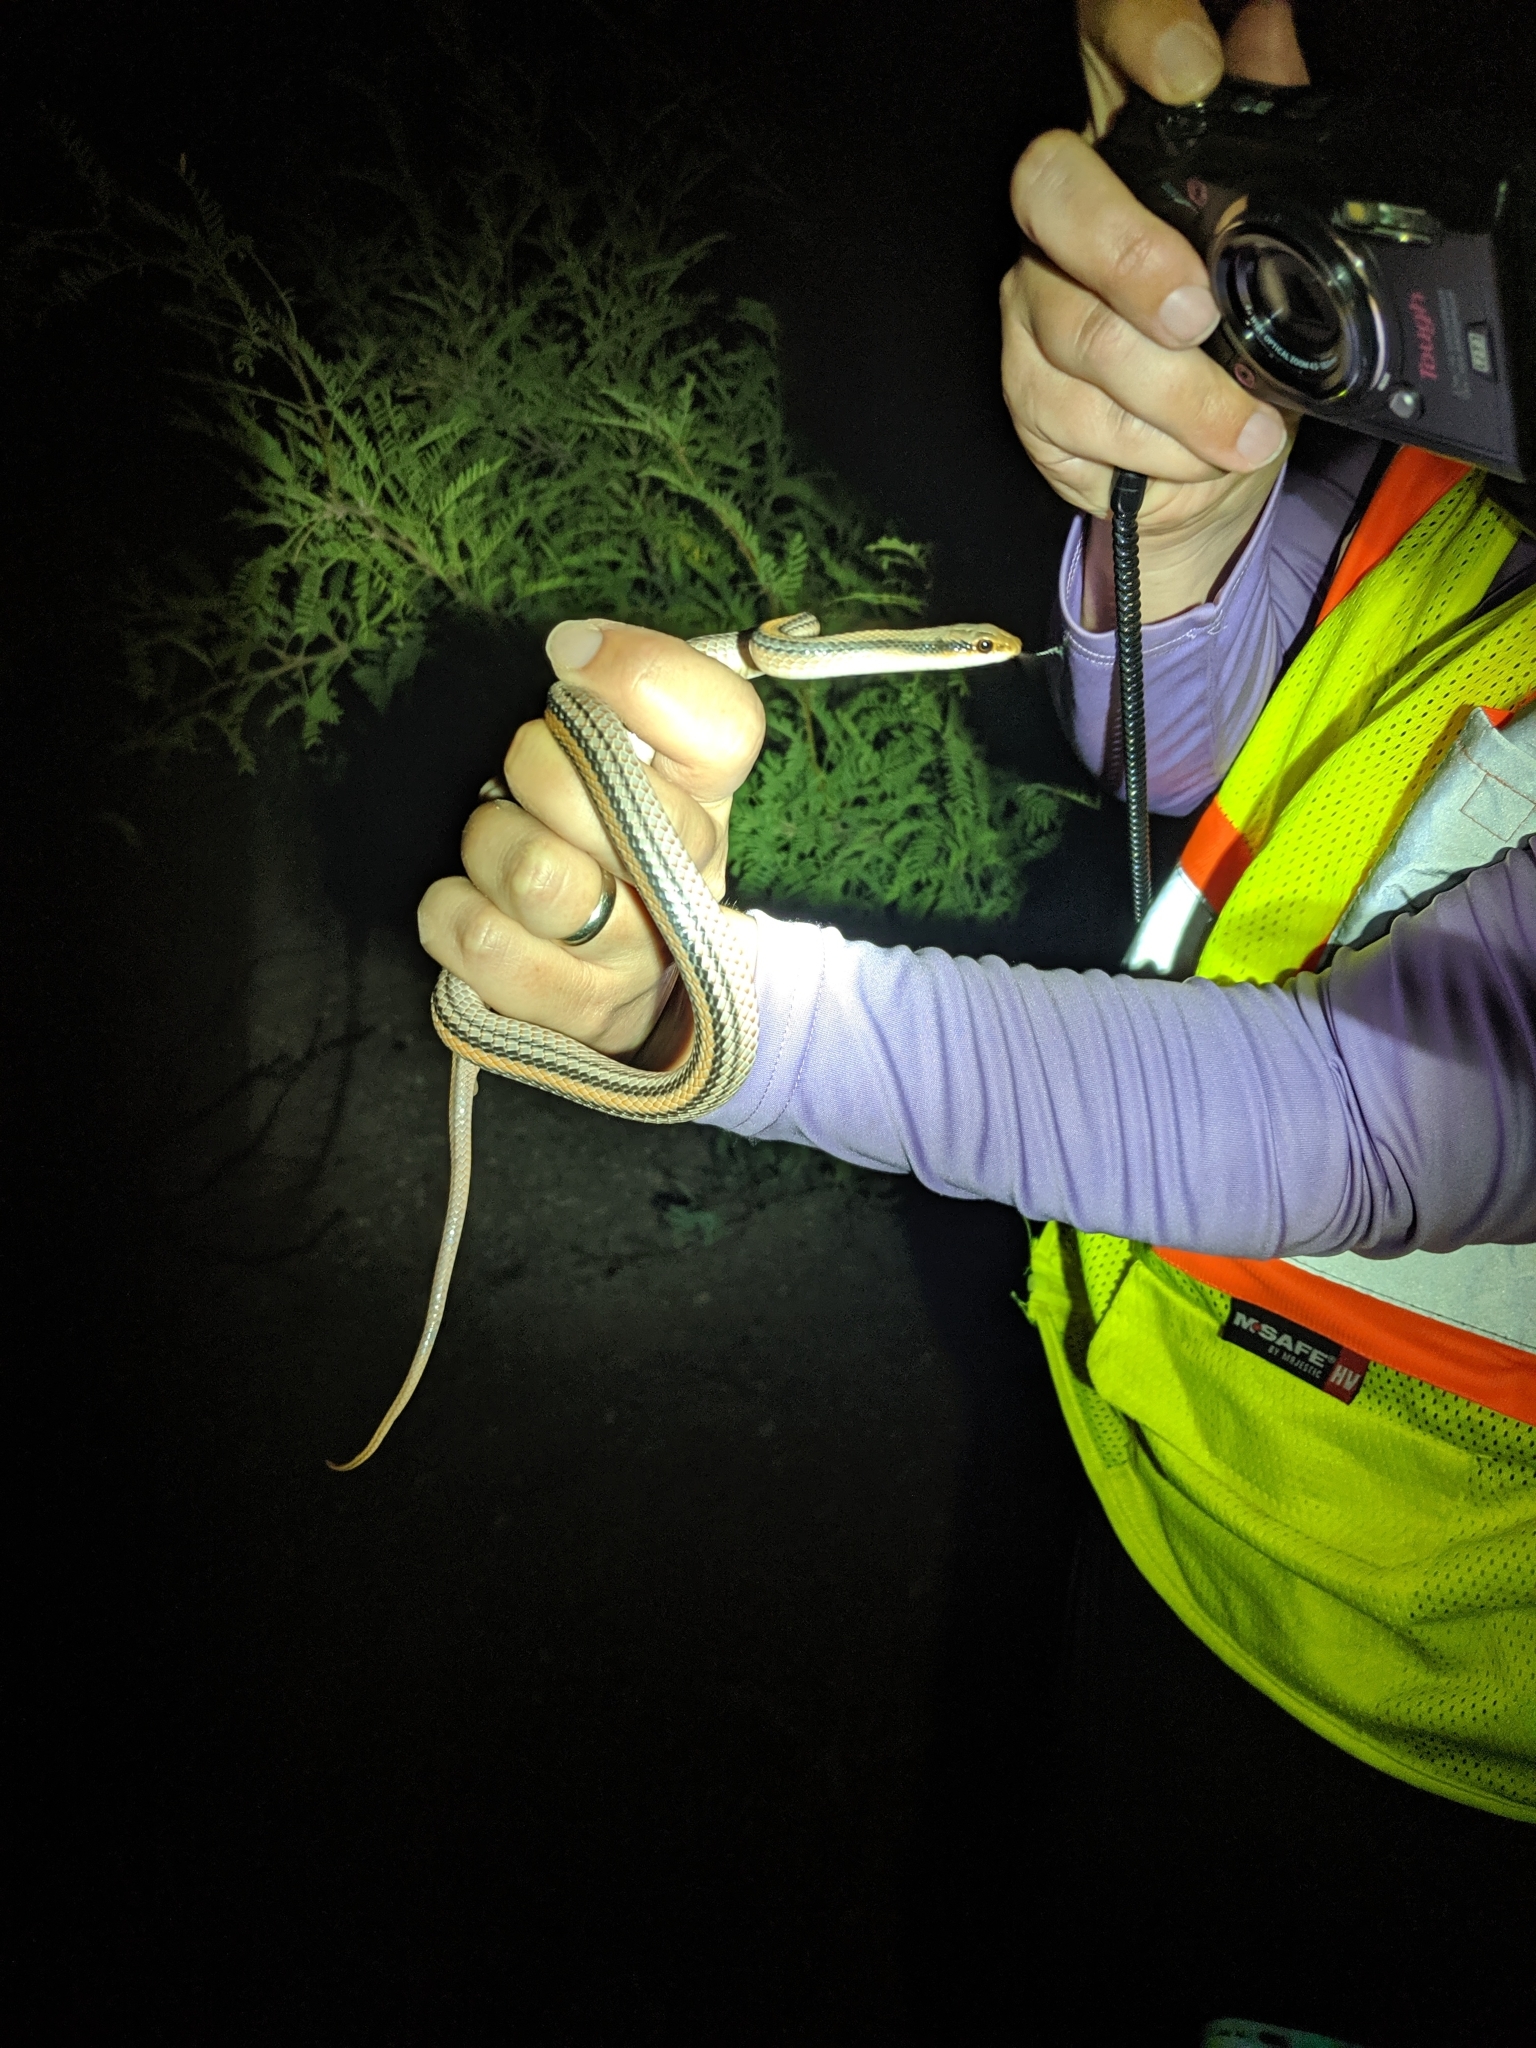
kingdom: Animalia
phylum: Chordata
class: Squamata
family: Colubridae
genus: Salvadora
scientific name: Salvadora deserticola
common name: Big bend patchnose snake
